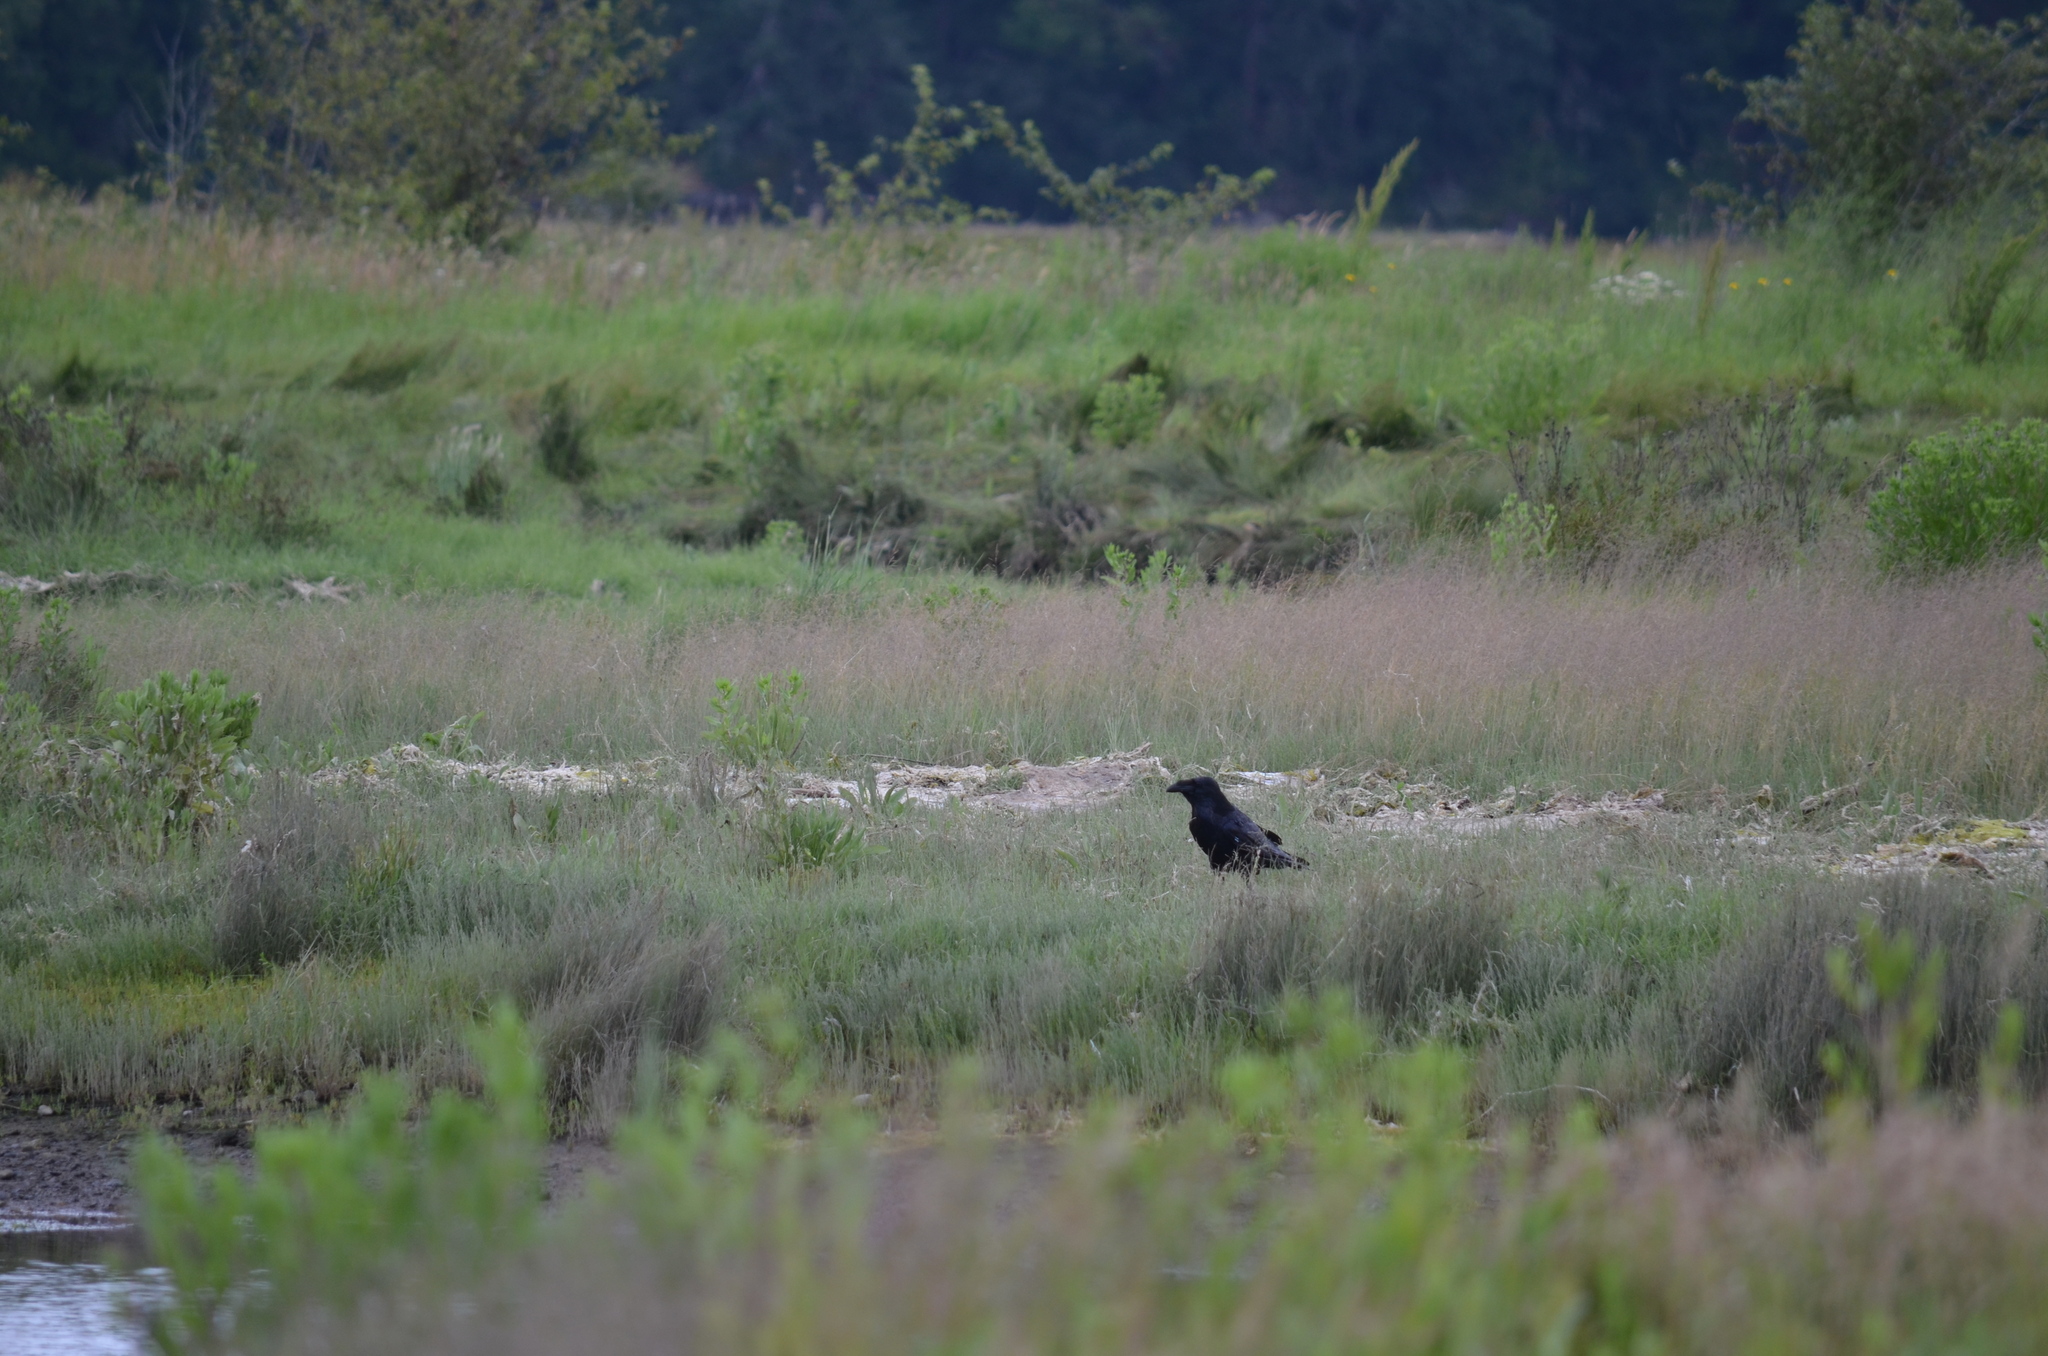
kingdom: Animalia
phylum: Chordata
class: Aves
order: Passeriformes
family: Corvidae
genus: Corvus
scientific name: Corvus corax
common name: Common raven
